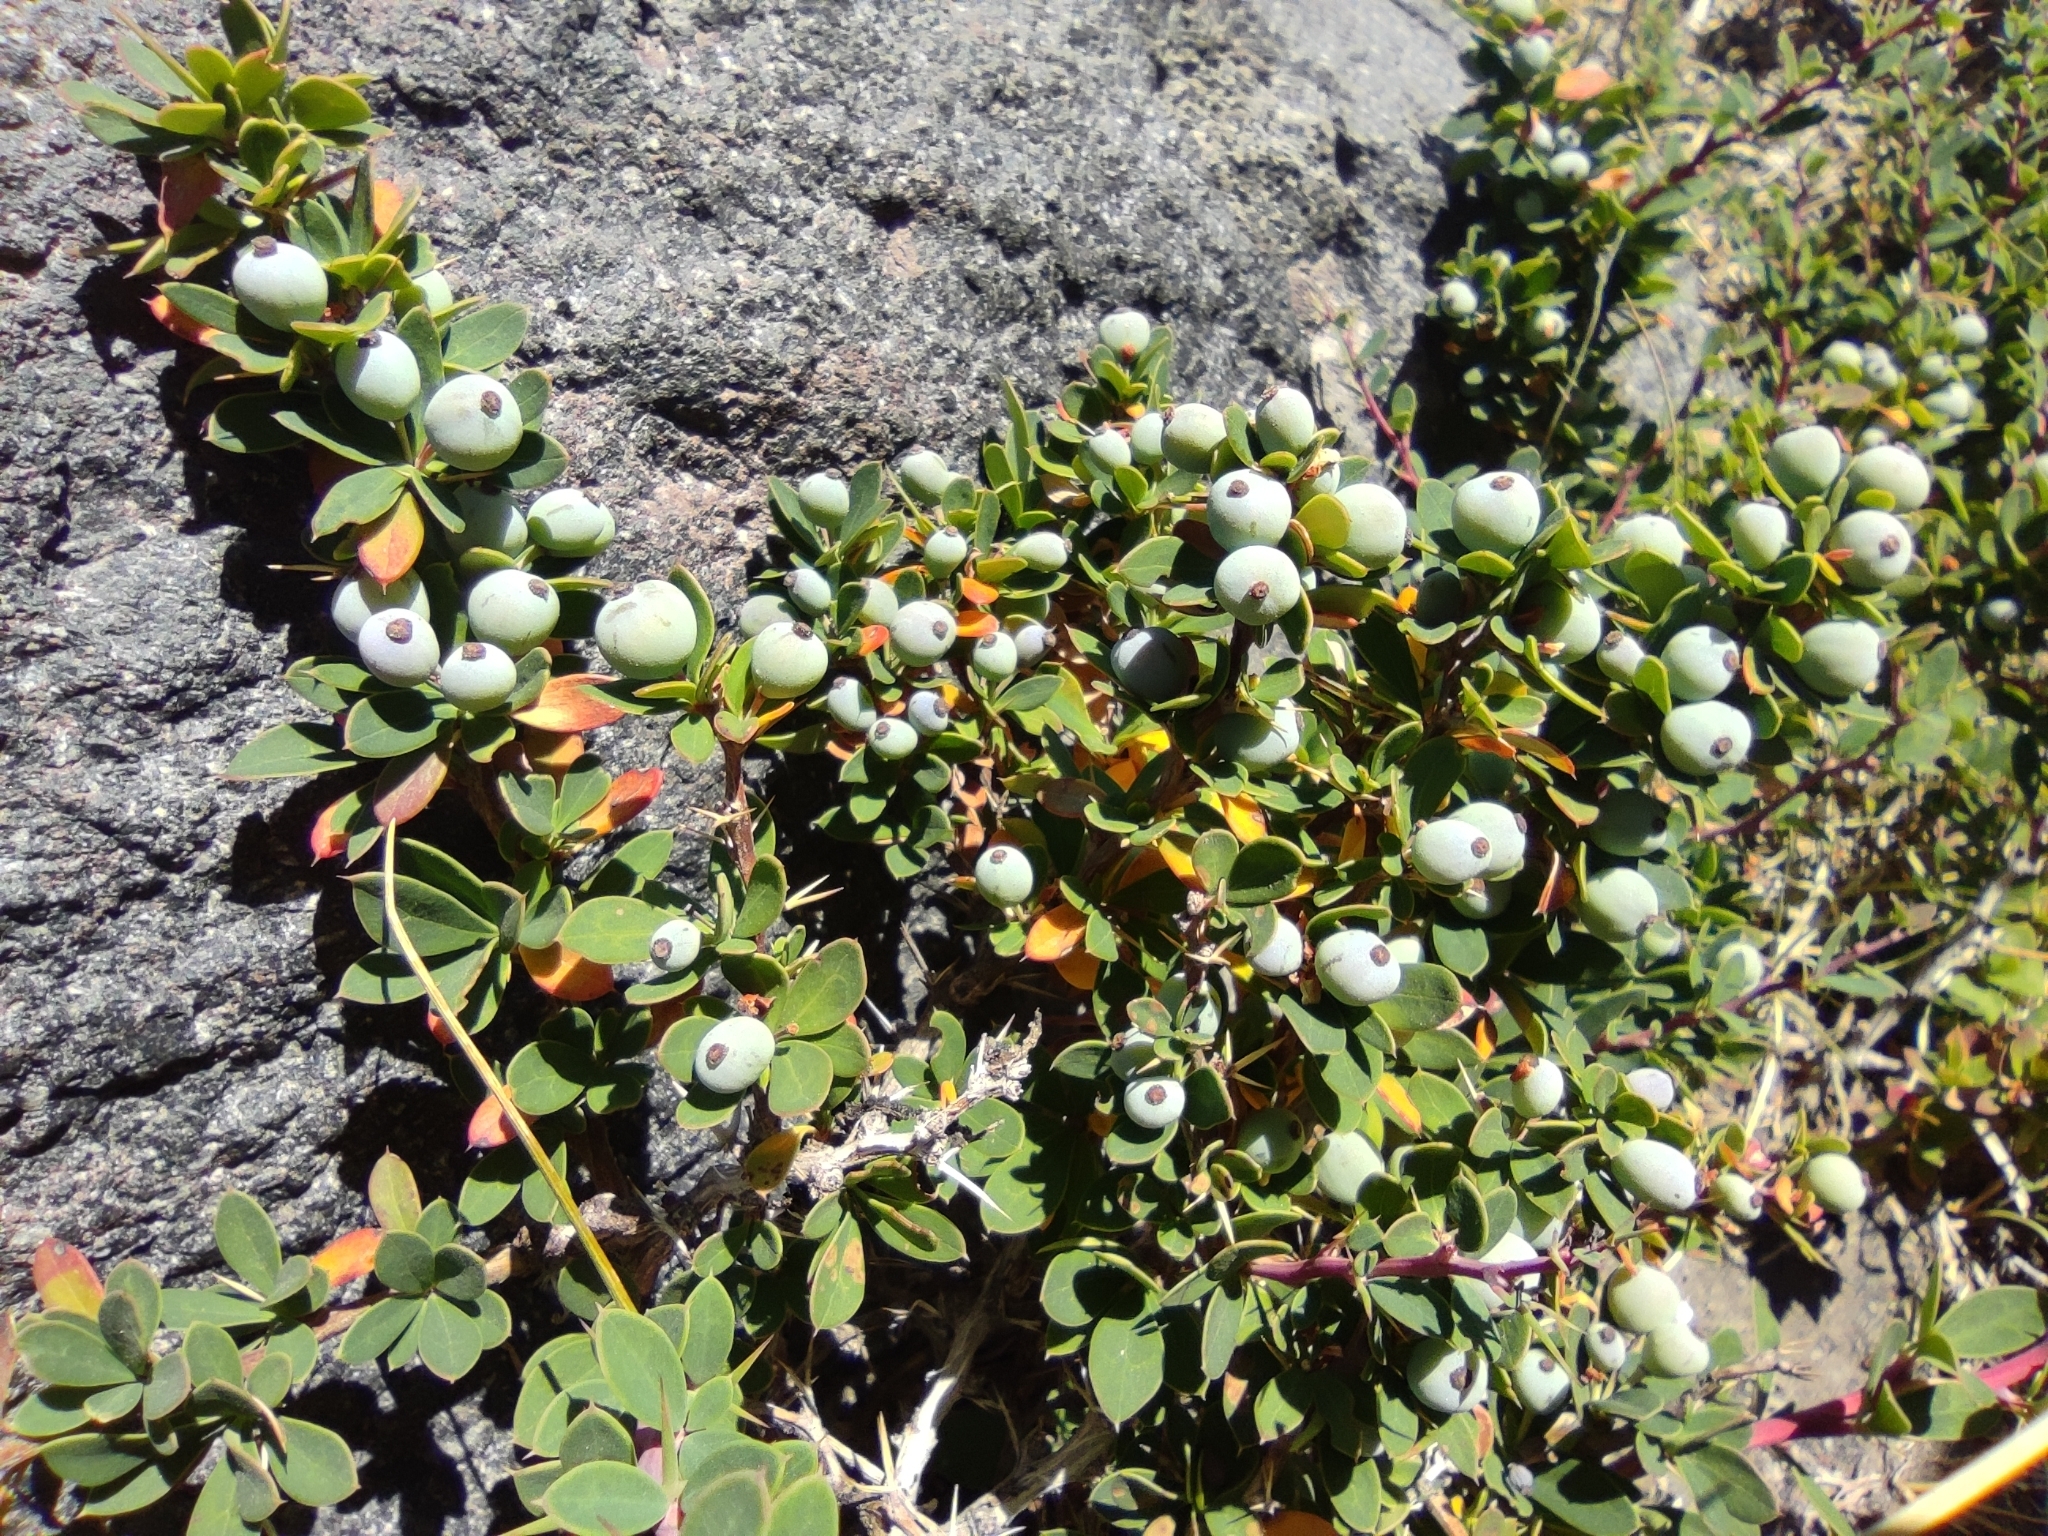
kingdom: Plantae
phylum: Tracheophyta
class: Magnoliopsida
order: Ranunculales
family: Berberidaceae
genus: Berberis
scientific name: Berberis microphylla
